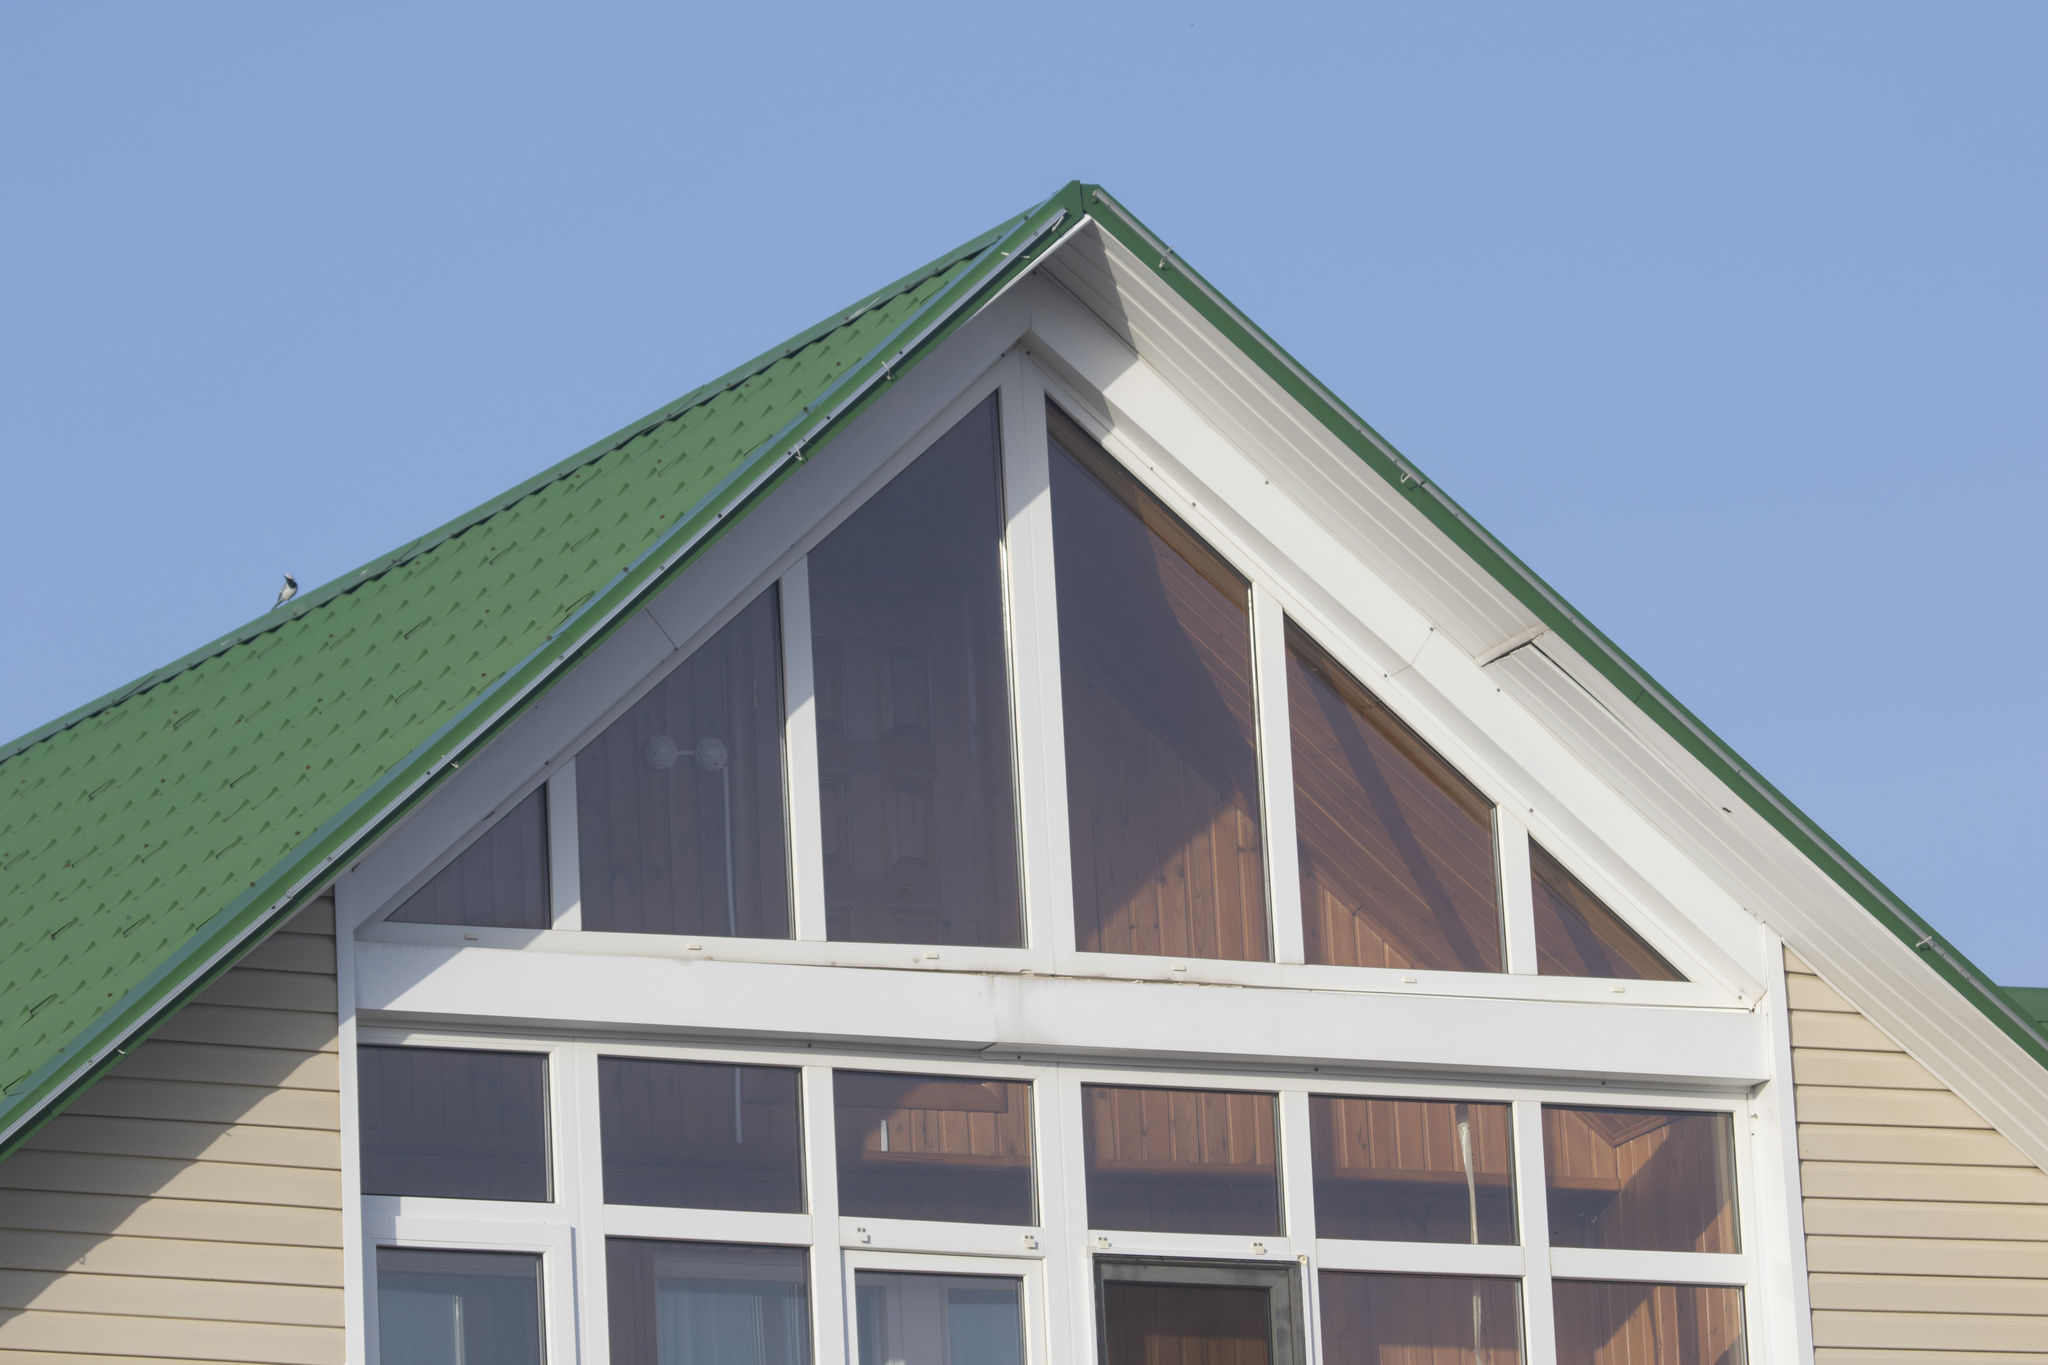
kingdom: Animalia
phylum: Chordata
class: Aves
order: Passeriformes
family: Motacillidae
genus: Motacilla
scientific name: Motacilla alba
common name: White wagtail
